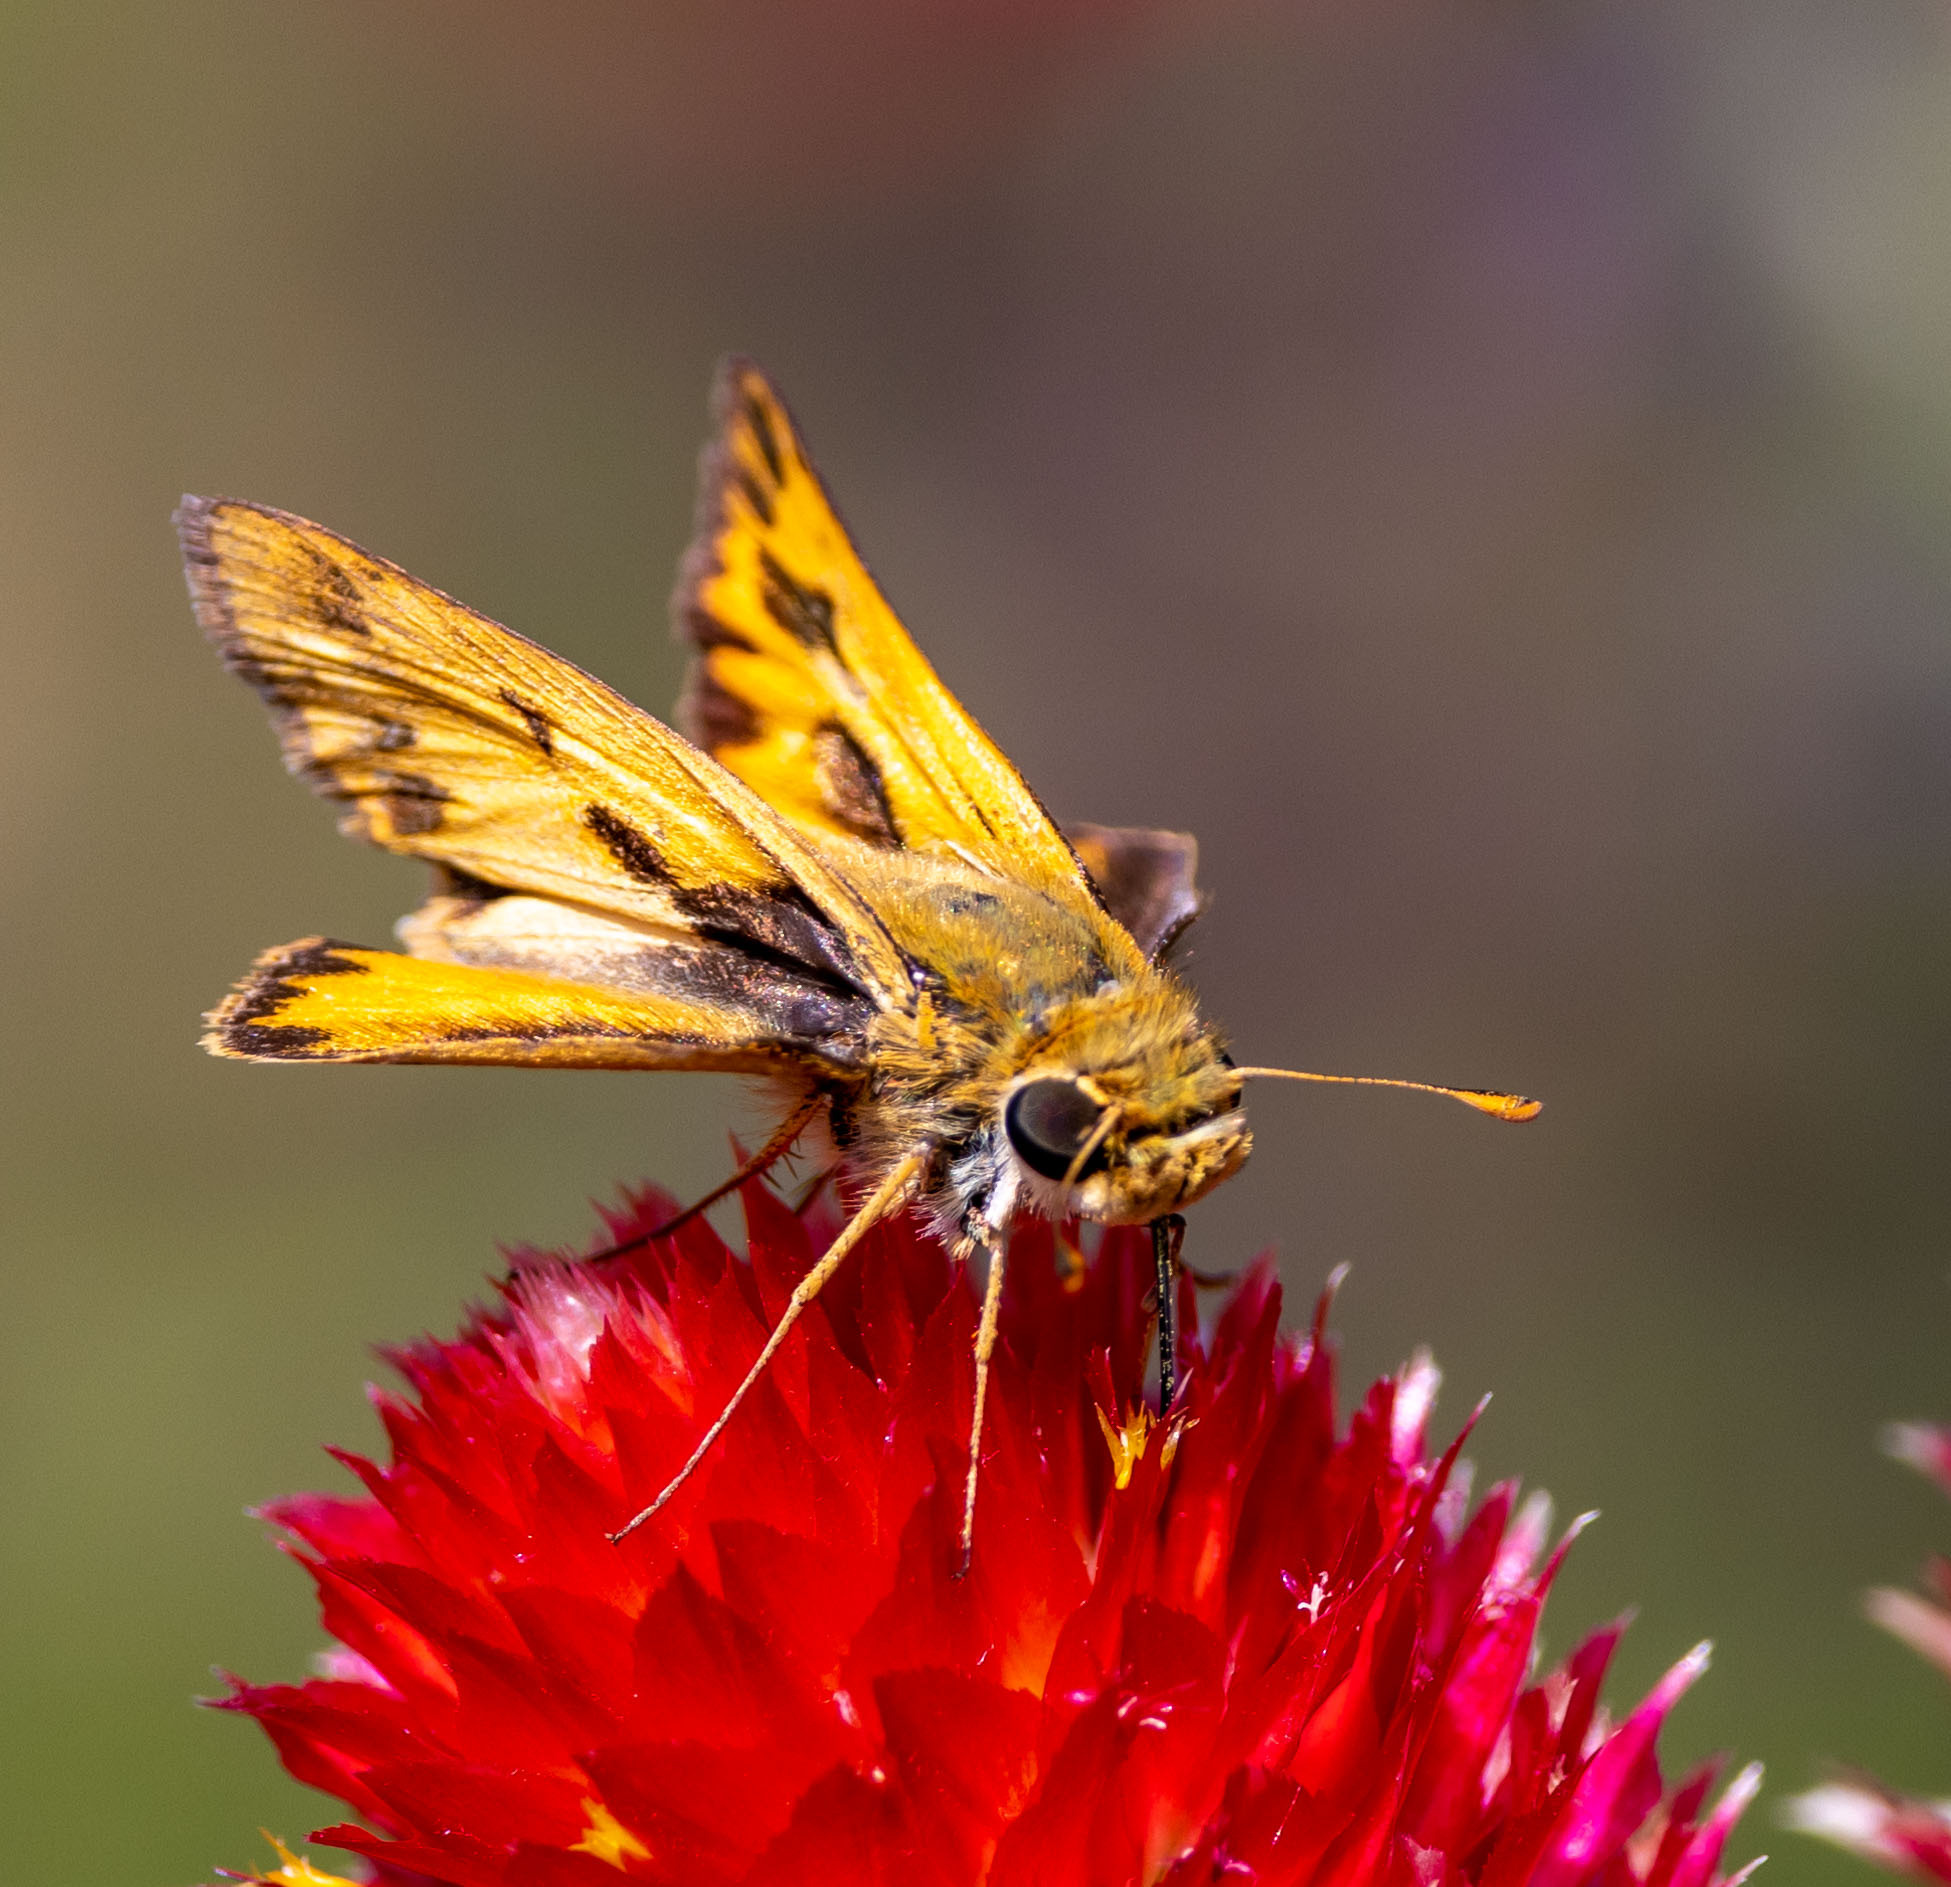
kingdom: Animalia
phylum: Arthropoda
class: Insecta
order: Lepidoptera
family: Hesperiidae
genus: Hylephila
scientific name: Hylephila phyleus
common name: Fiery skipper
